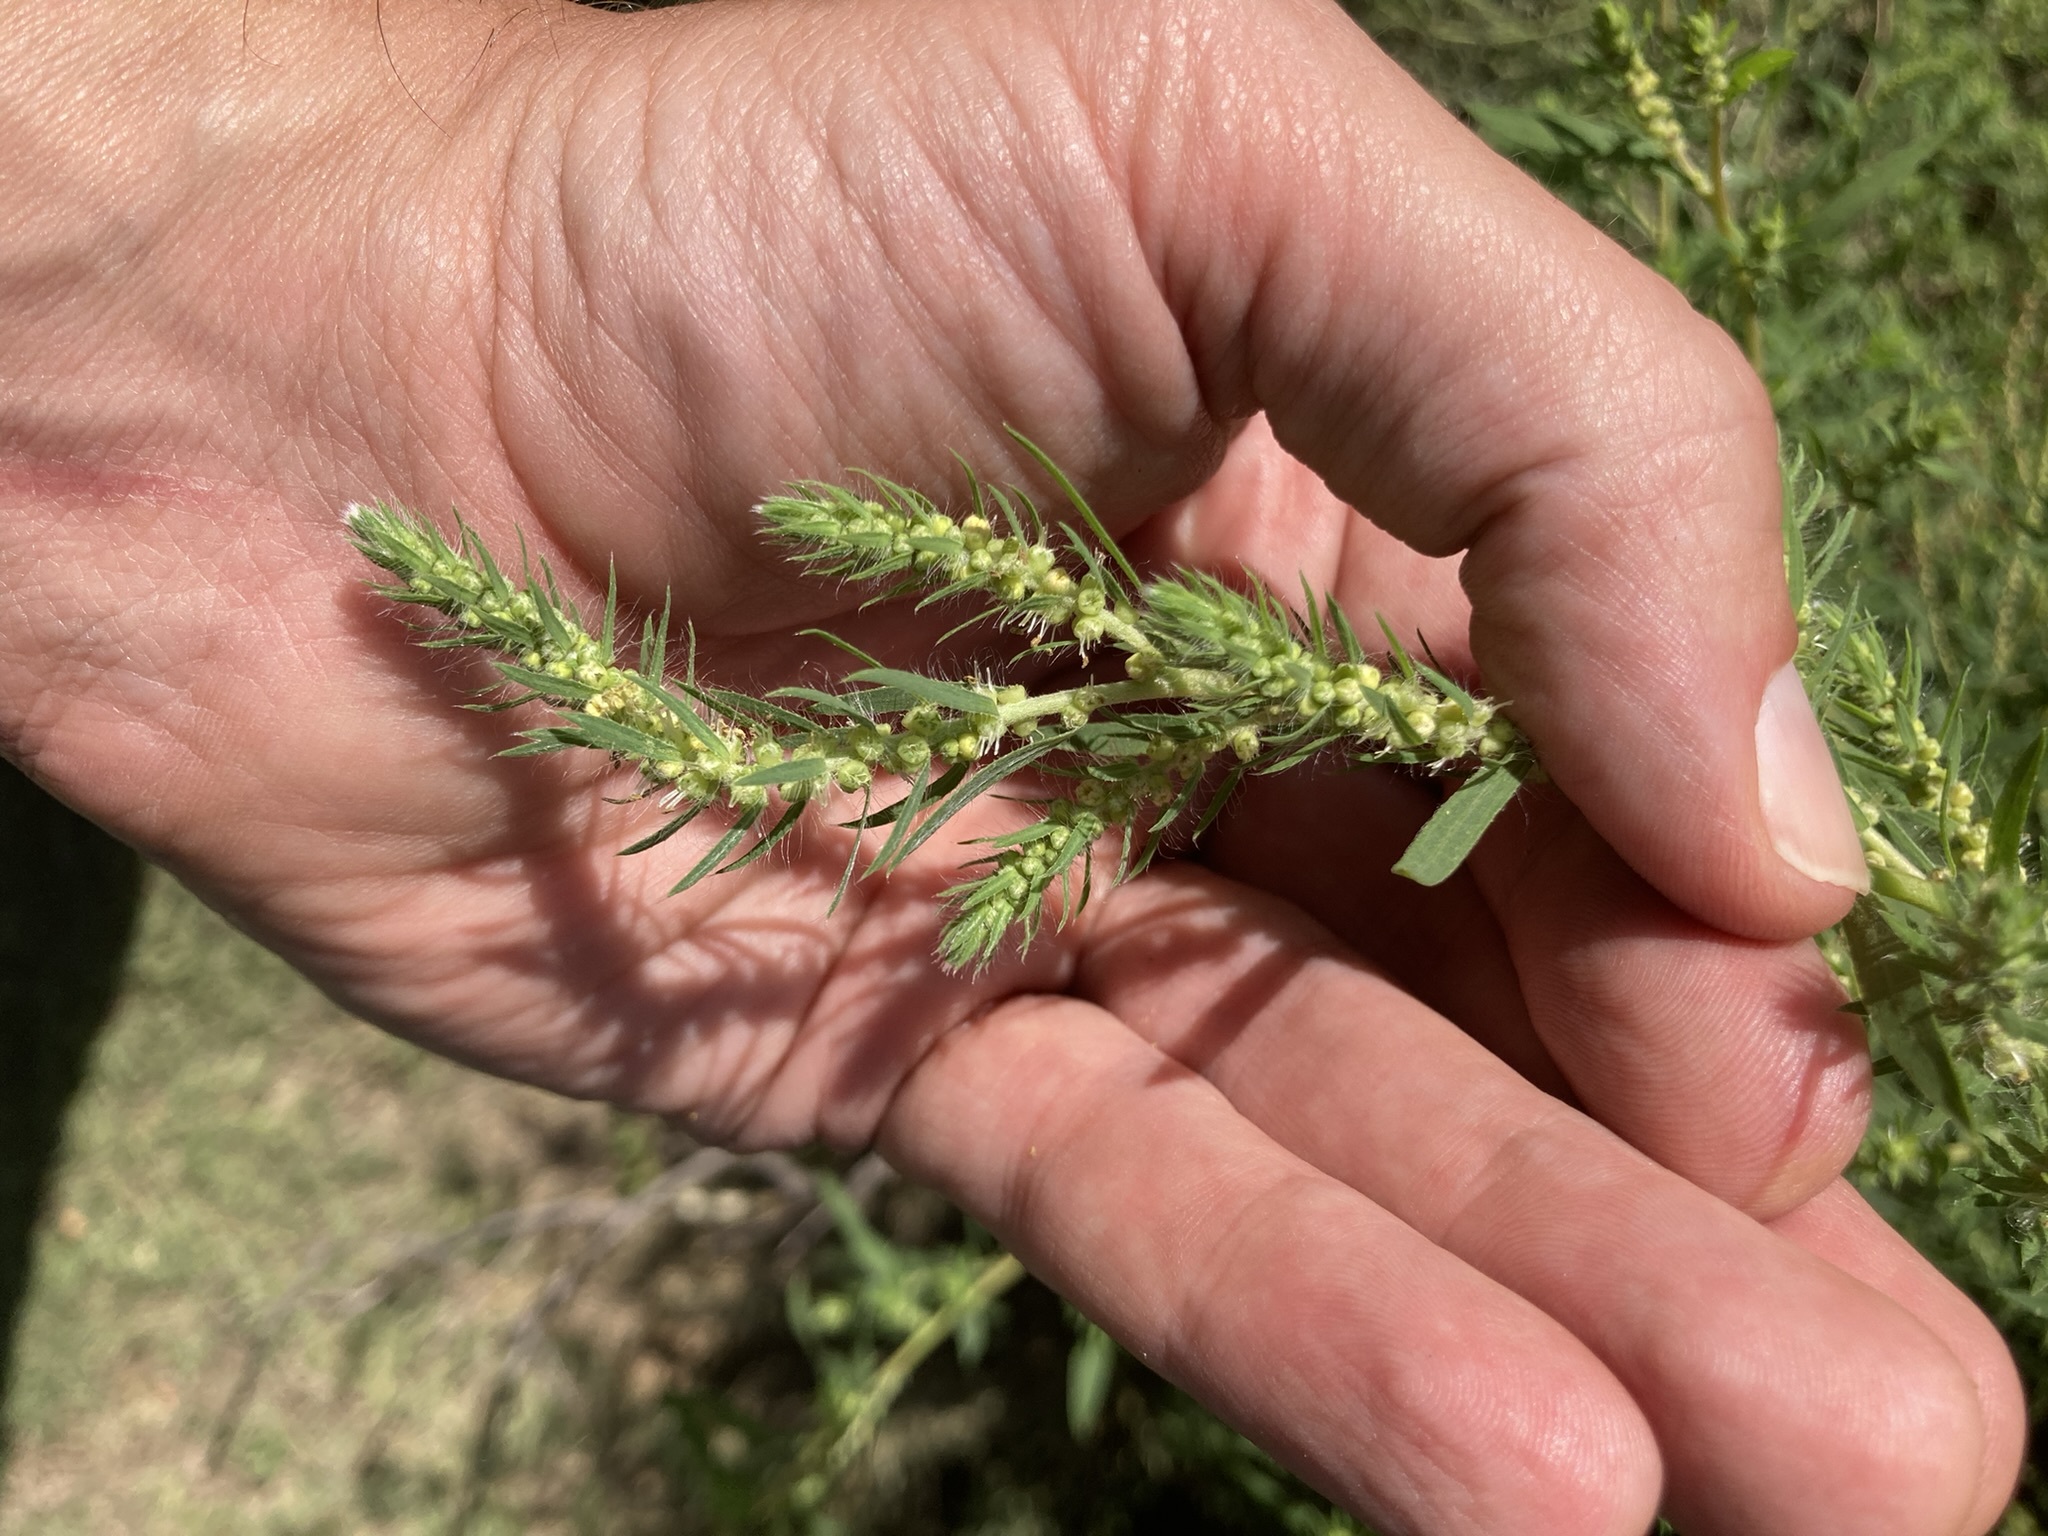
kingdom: Plantae
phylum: Tracheophyta
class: Magnoliopsida
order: Caryophyllales
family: Amaranthaceae
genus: Bassia
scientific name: Bassia scoparia
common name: Belvedere
